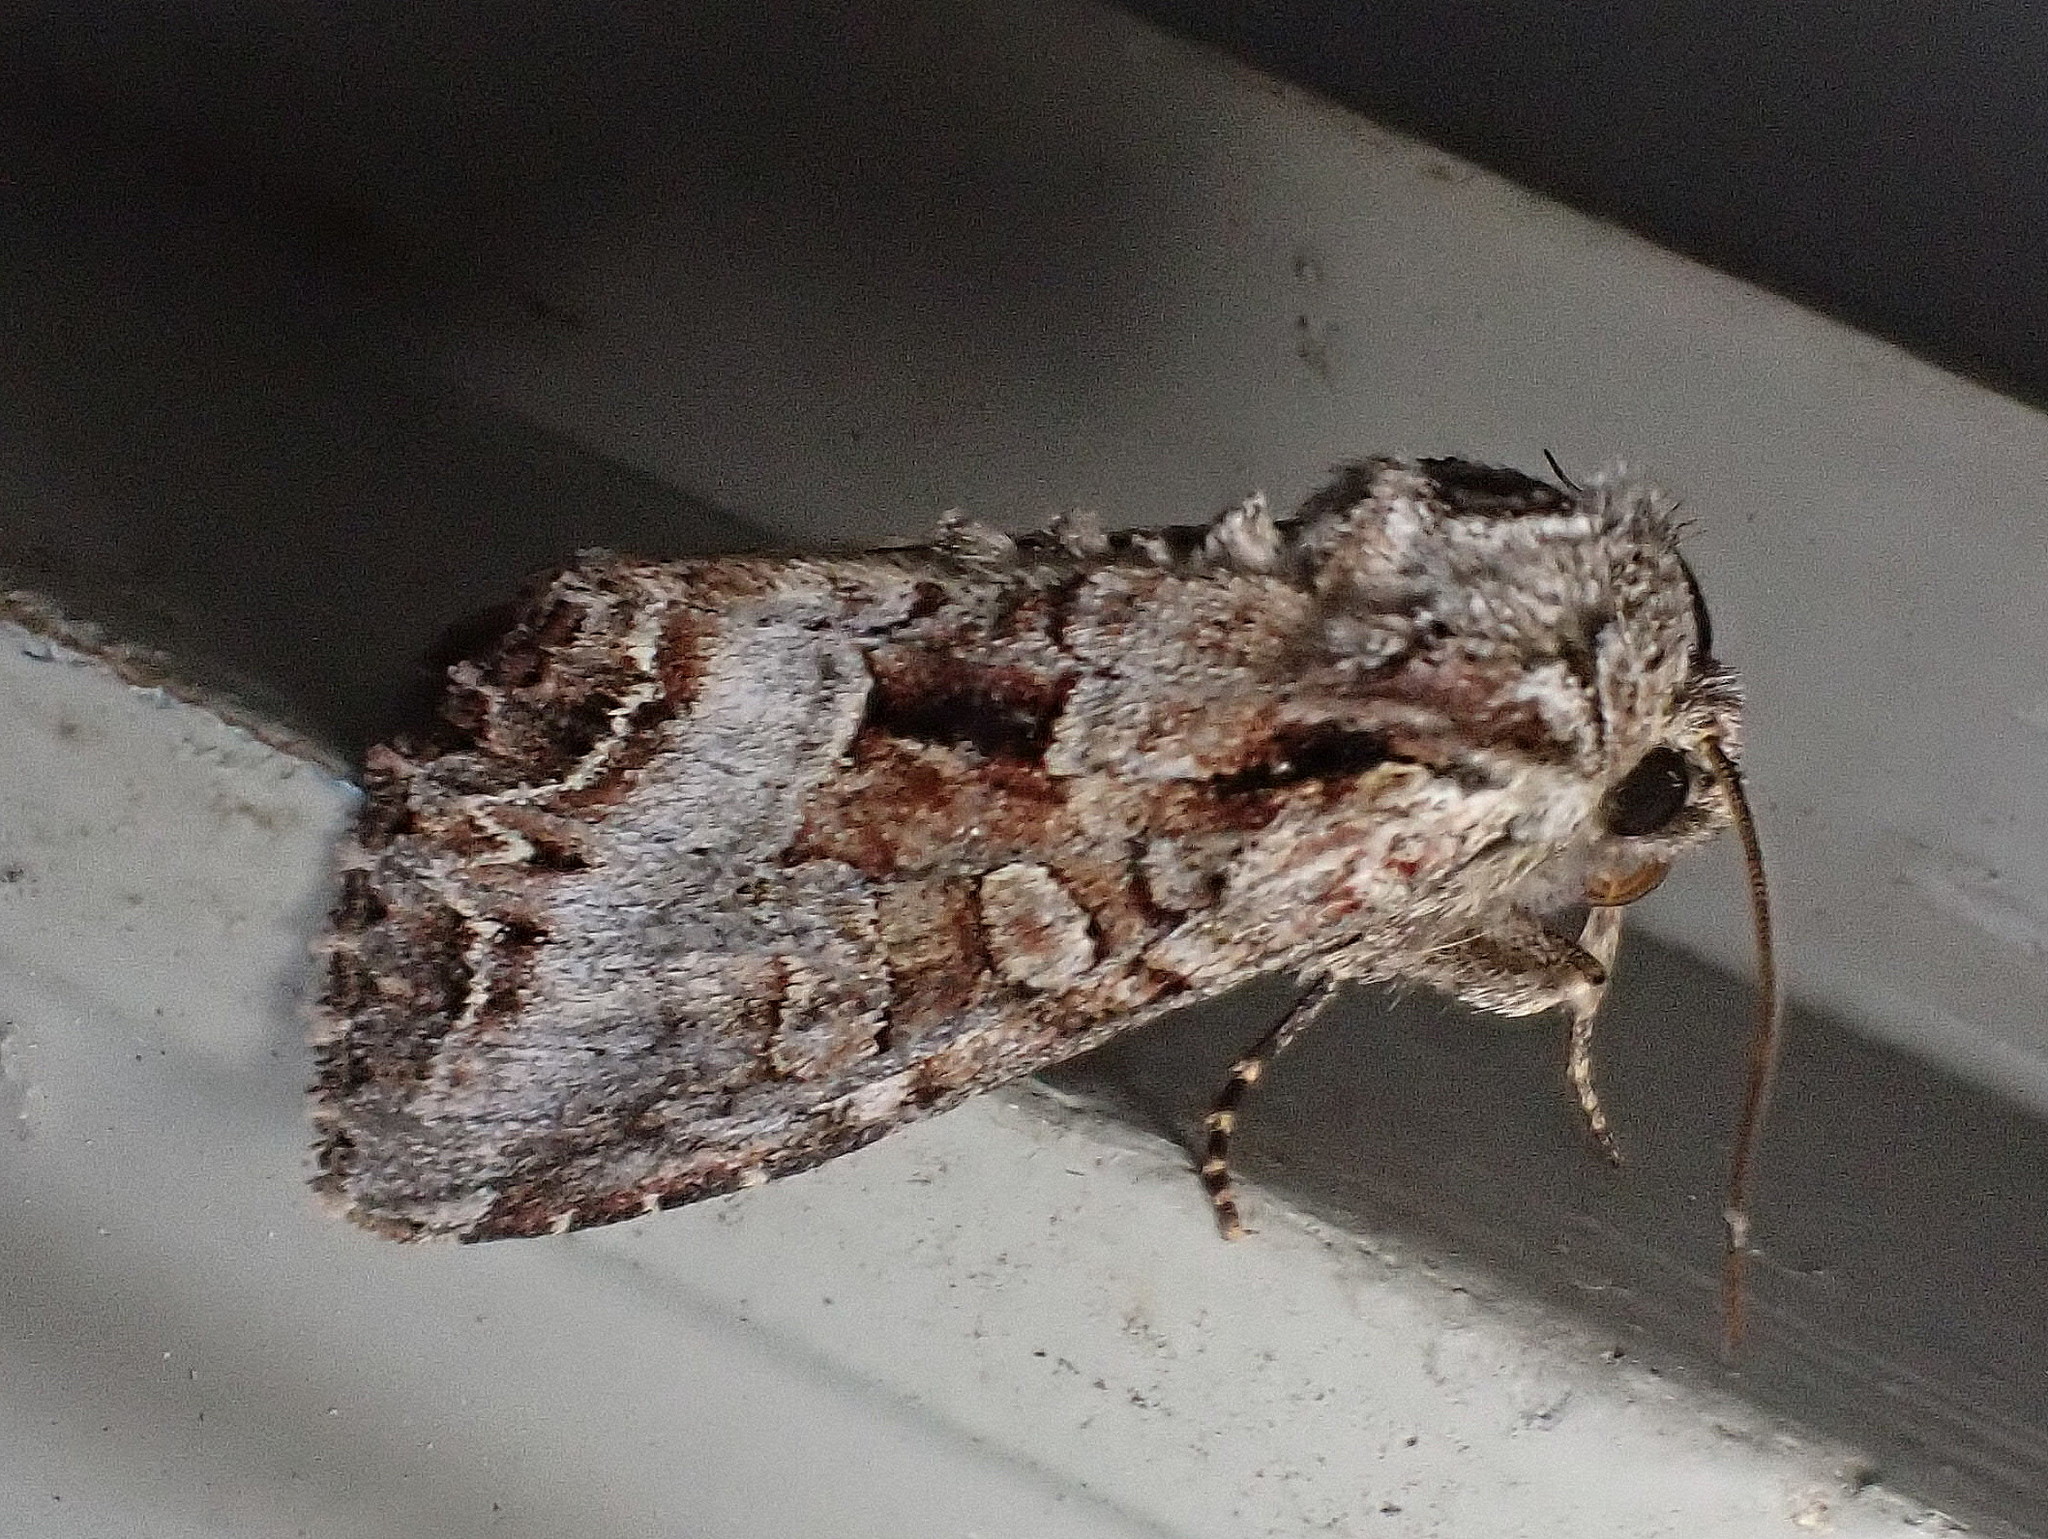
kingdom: Animalia
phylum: Arthropoda
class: Insecta
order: Lepidoptera
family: Noctuidae
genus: Lacanobia
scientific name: Lacanobia grandis
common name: Grand arches moth
